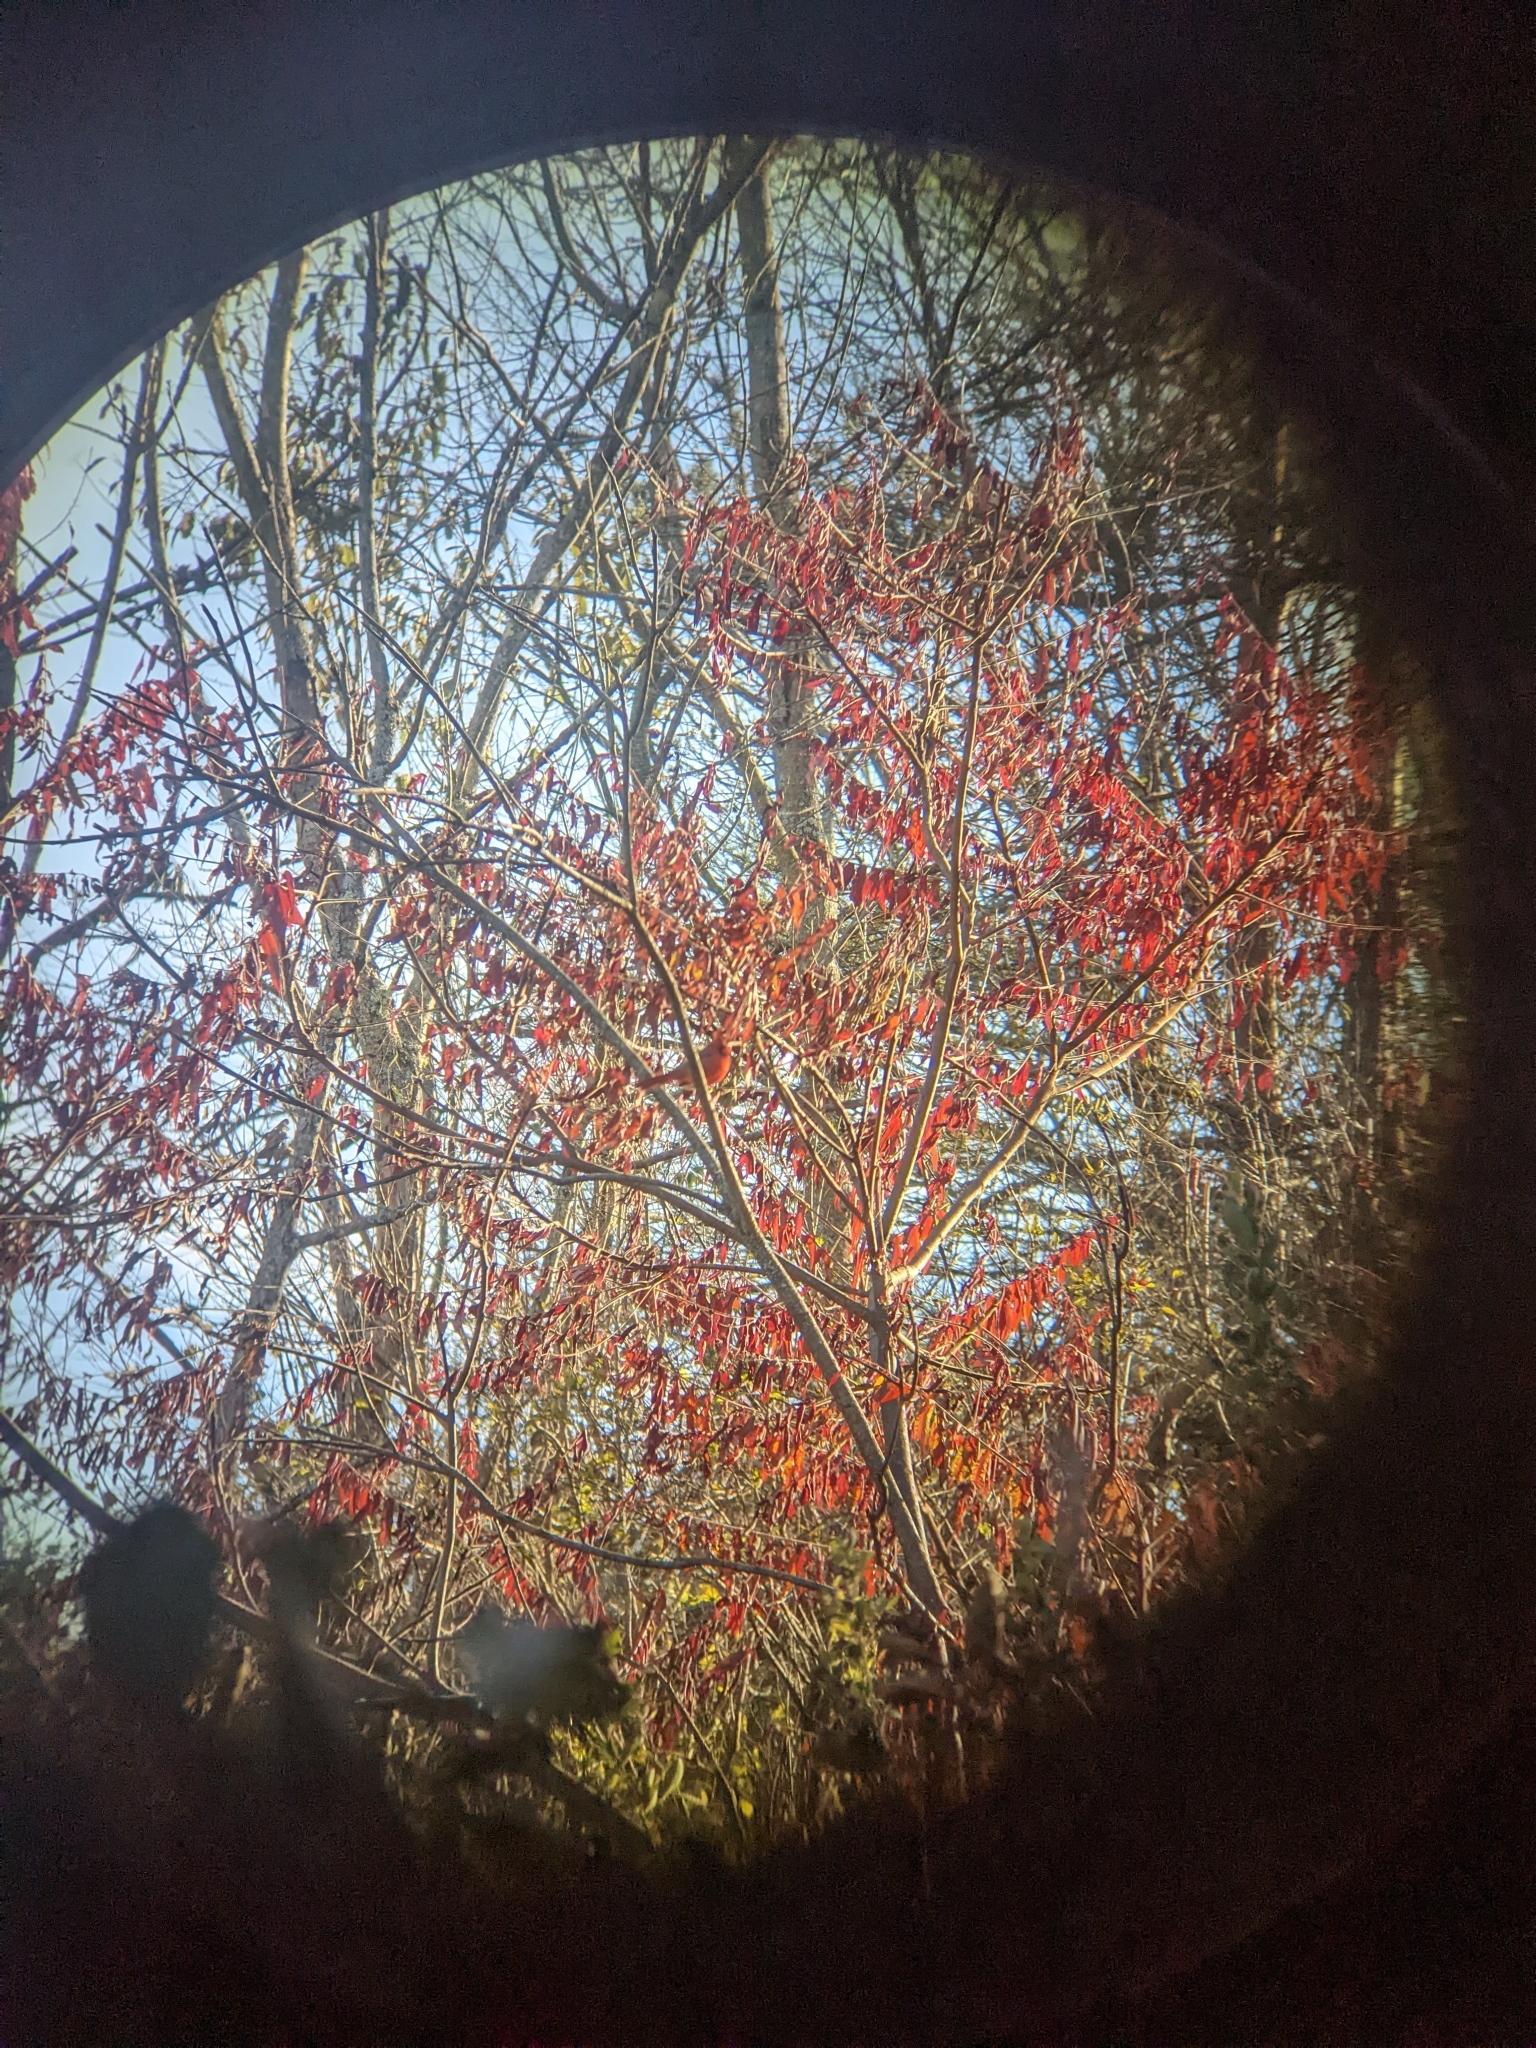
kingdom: Animalia
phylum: Chordata
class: Aves
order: Passeriformes
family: Cardinalidae
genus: Cardinalis
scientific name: Cardinalis cardinalis
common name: Northern cardinal
